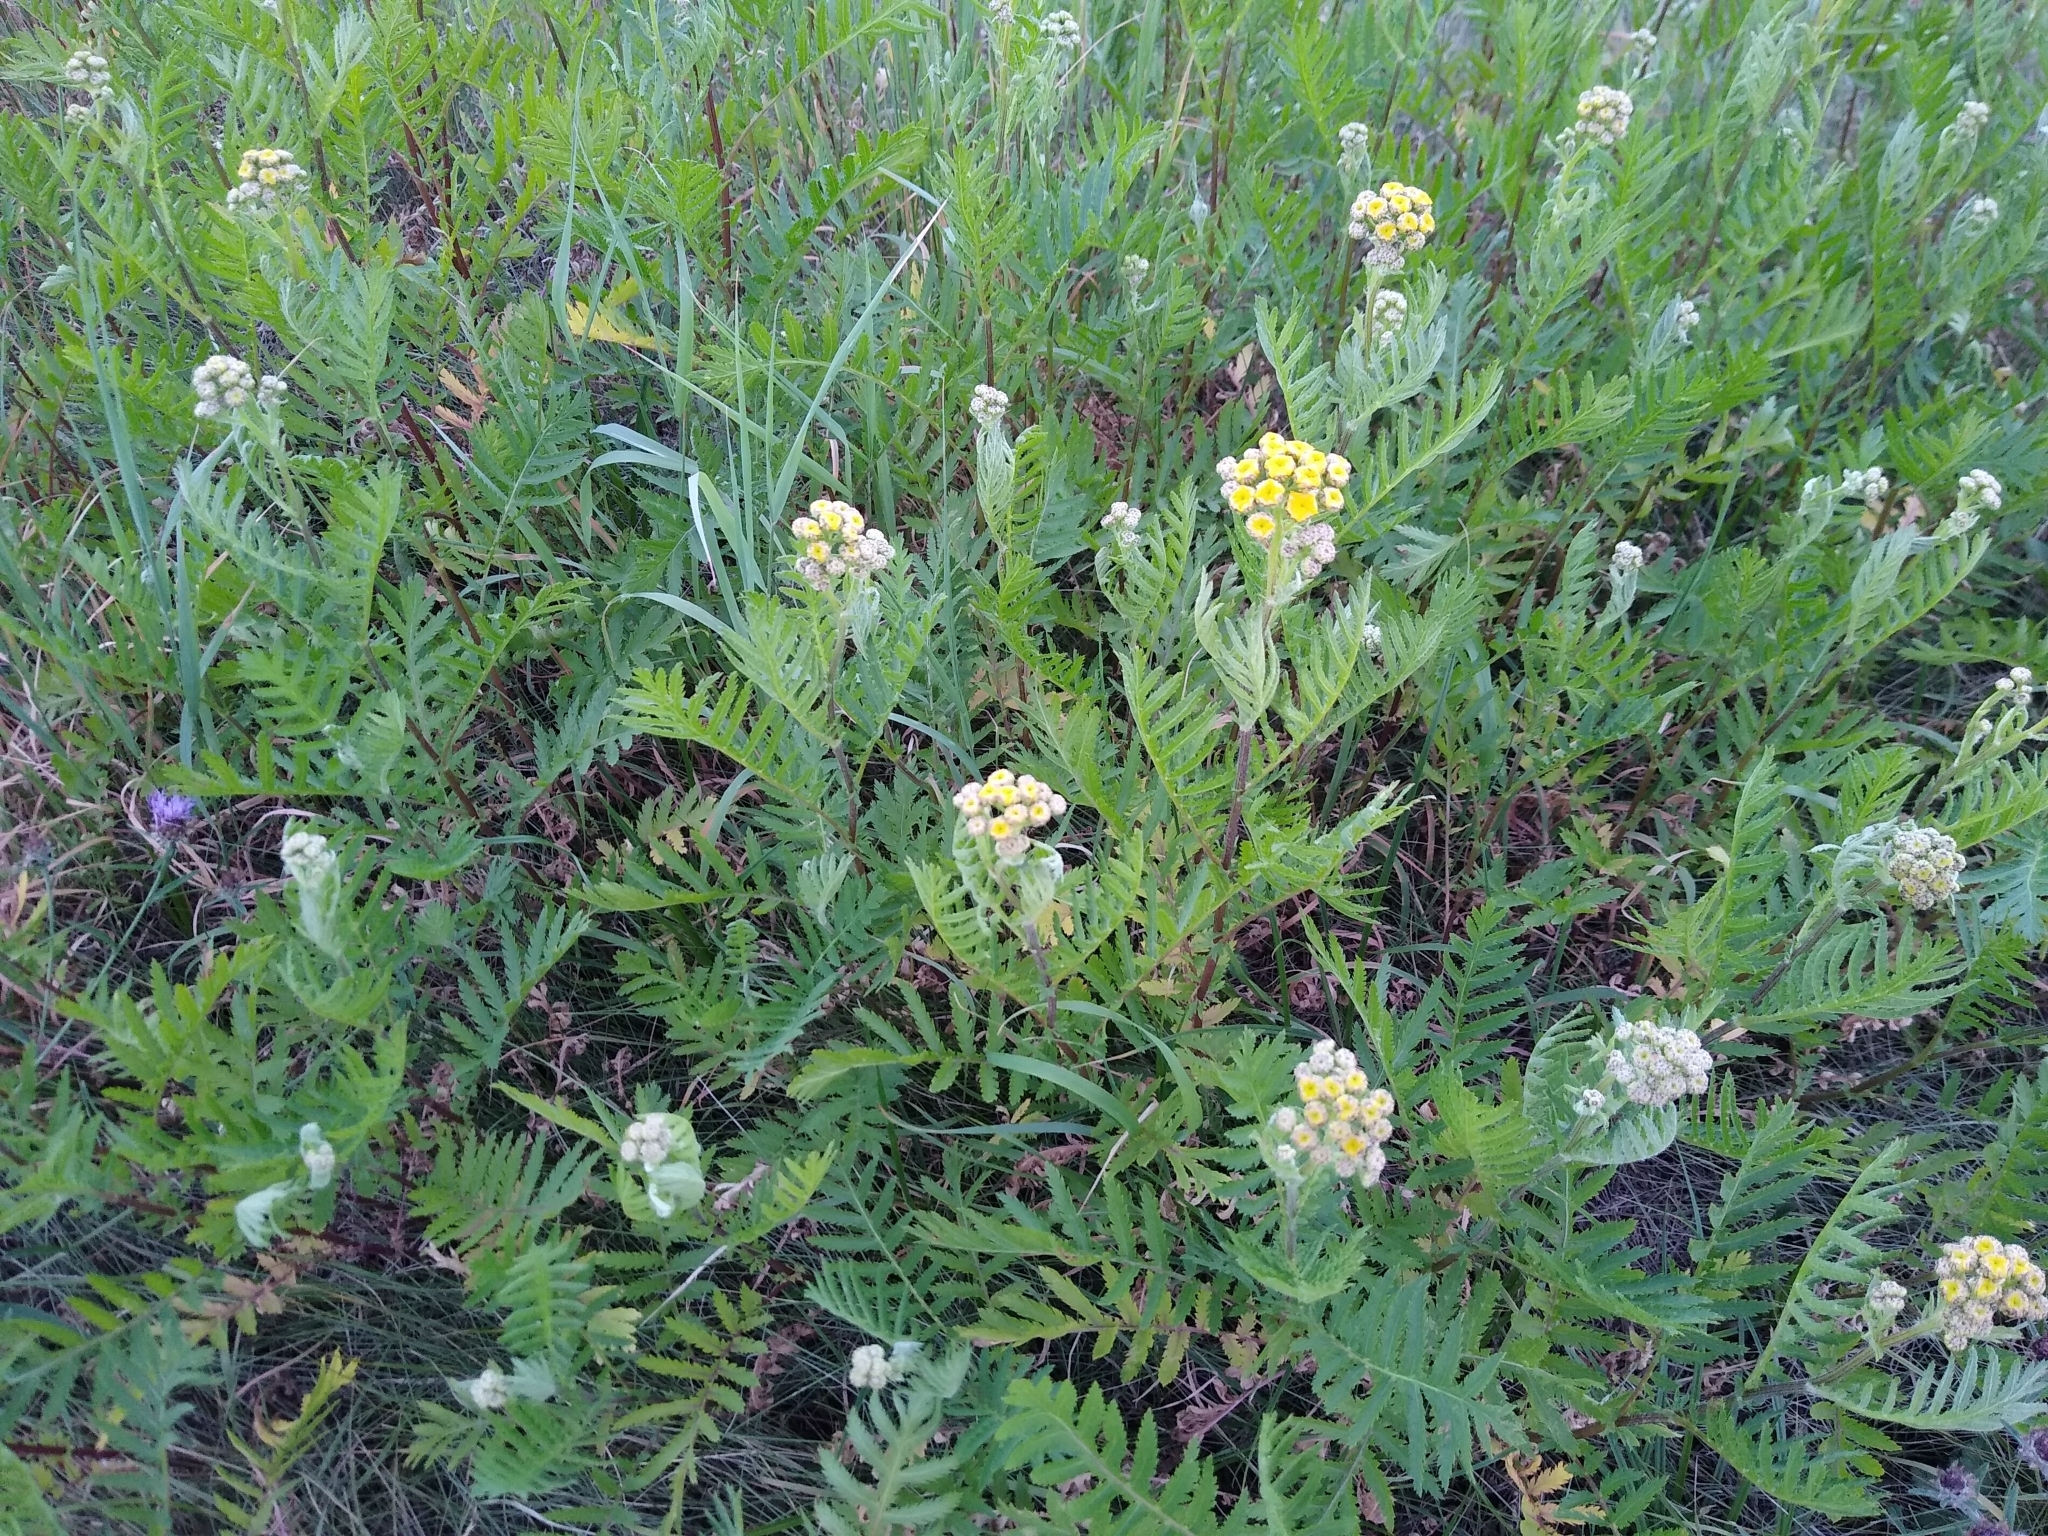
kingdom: Plantae
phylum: Tracheophyta
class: Magnoliopsida
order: Asterales
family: Asteraceae
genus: Tanacetum
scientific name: Tanacetum vulgare
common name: Common tansy
